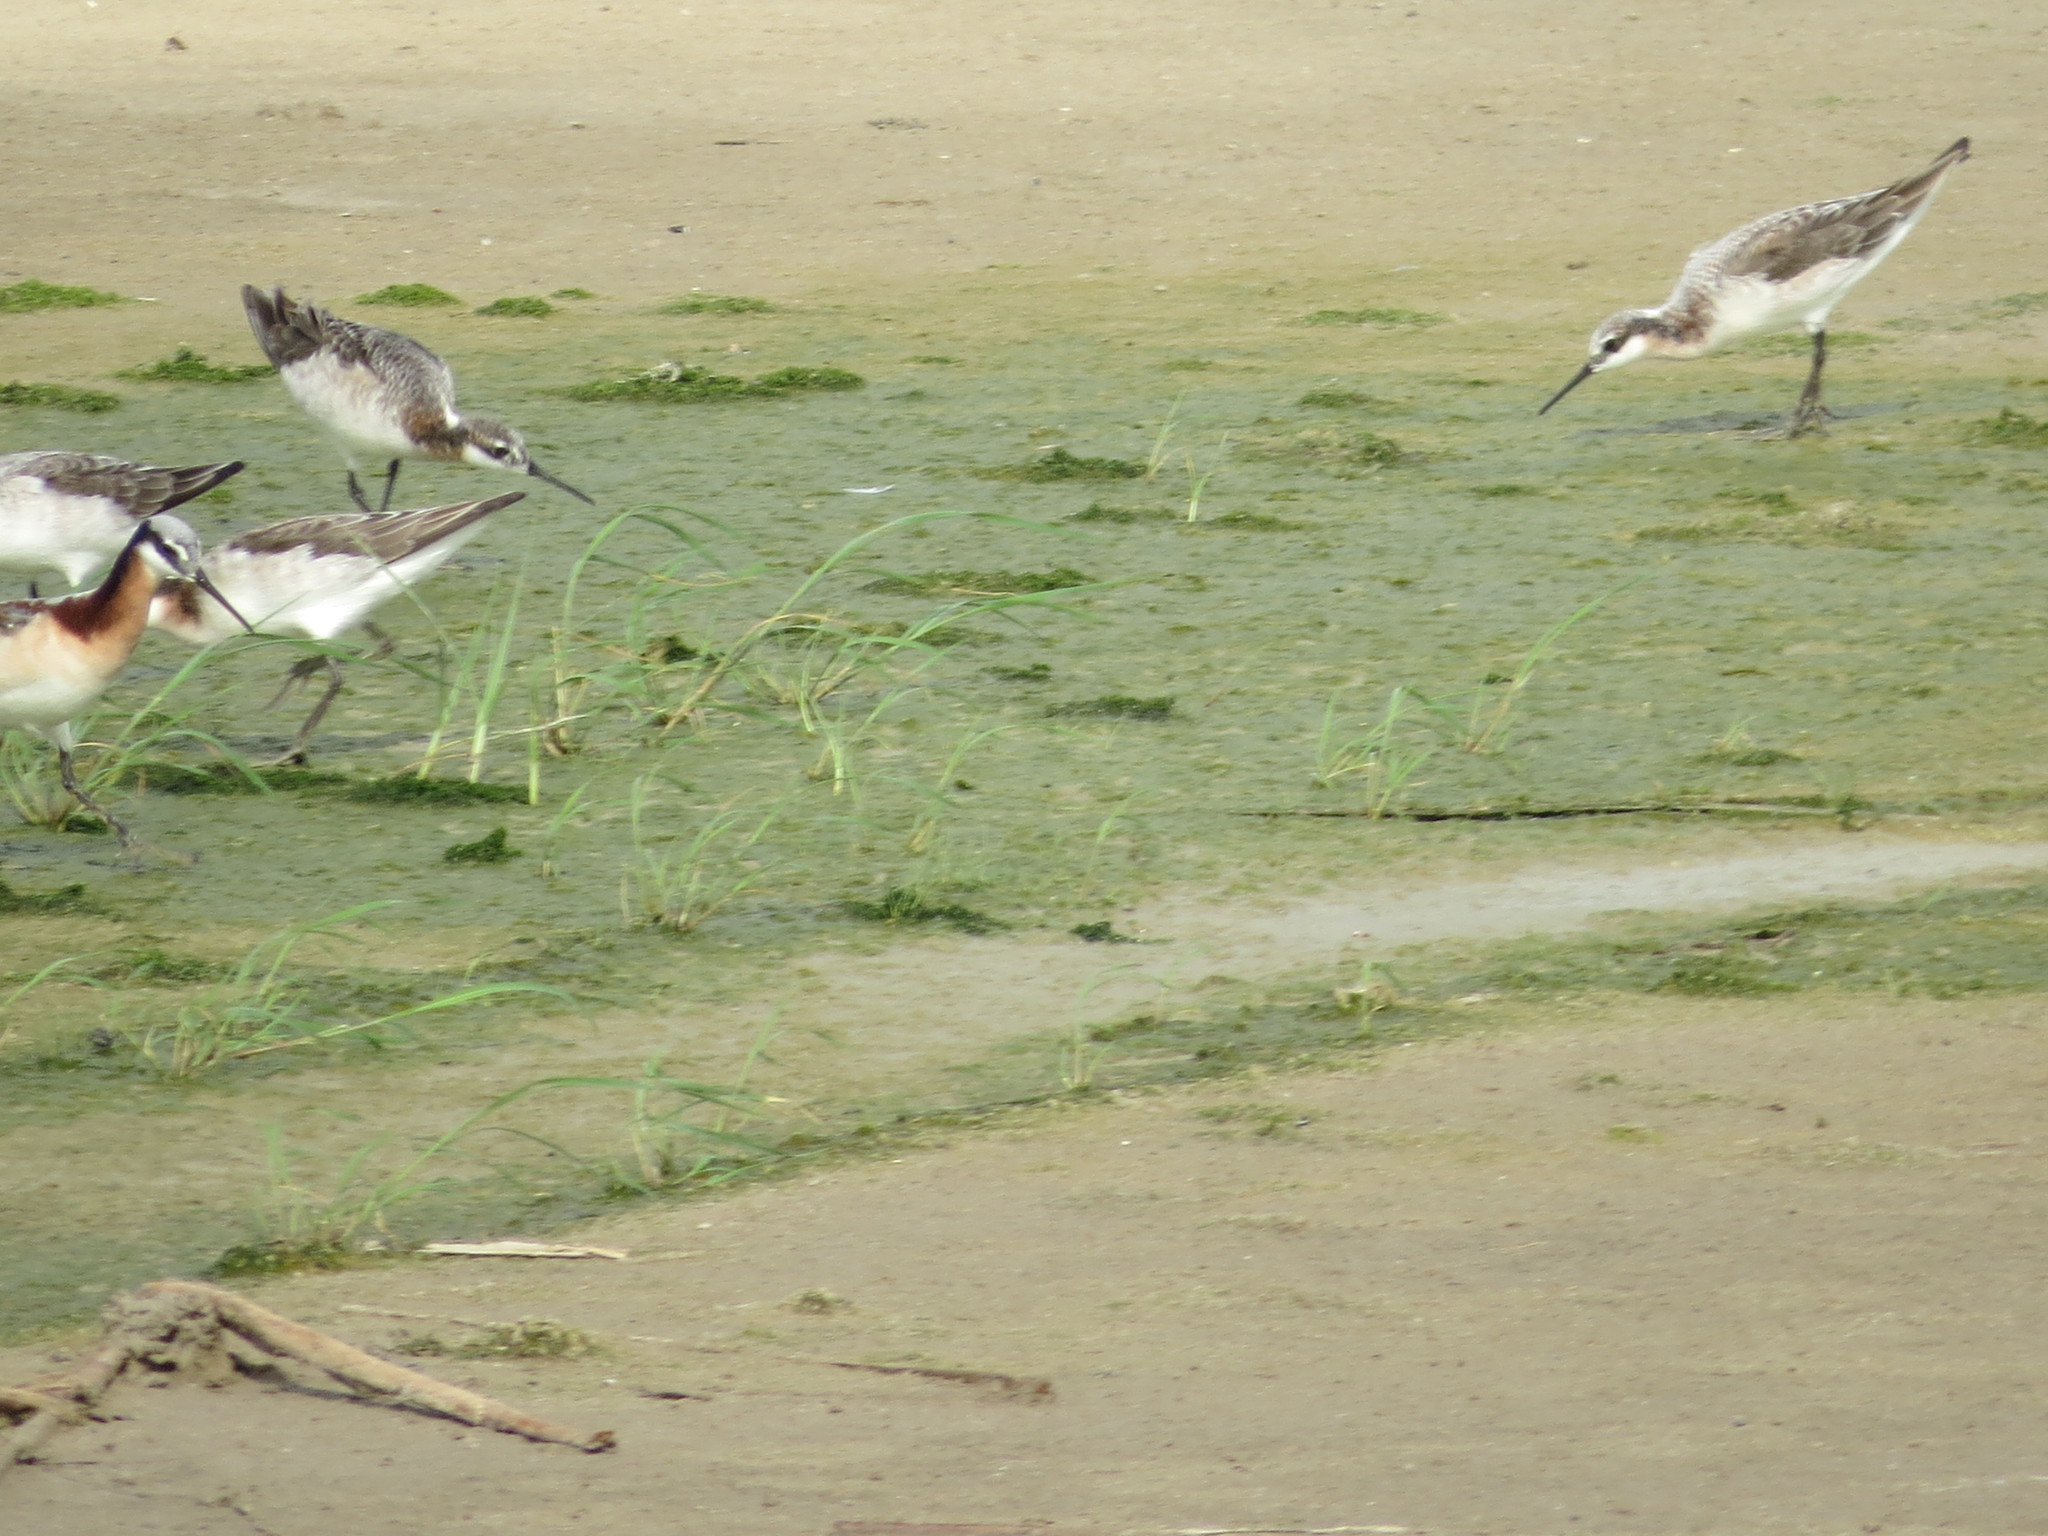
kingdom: Animalia
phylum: Chordata
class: Aves
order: Charadriiformes
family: Scolopacidae
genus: Phalaropus
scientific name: Phalaropus tricolor
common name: Wilson's phalarope
